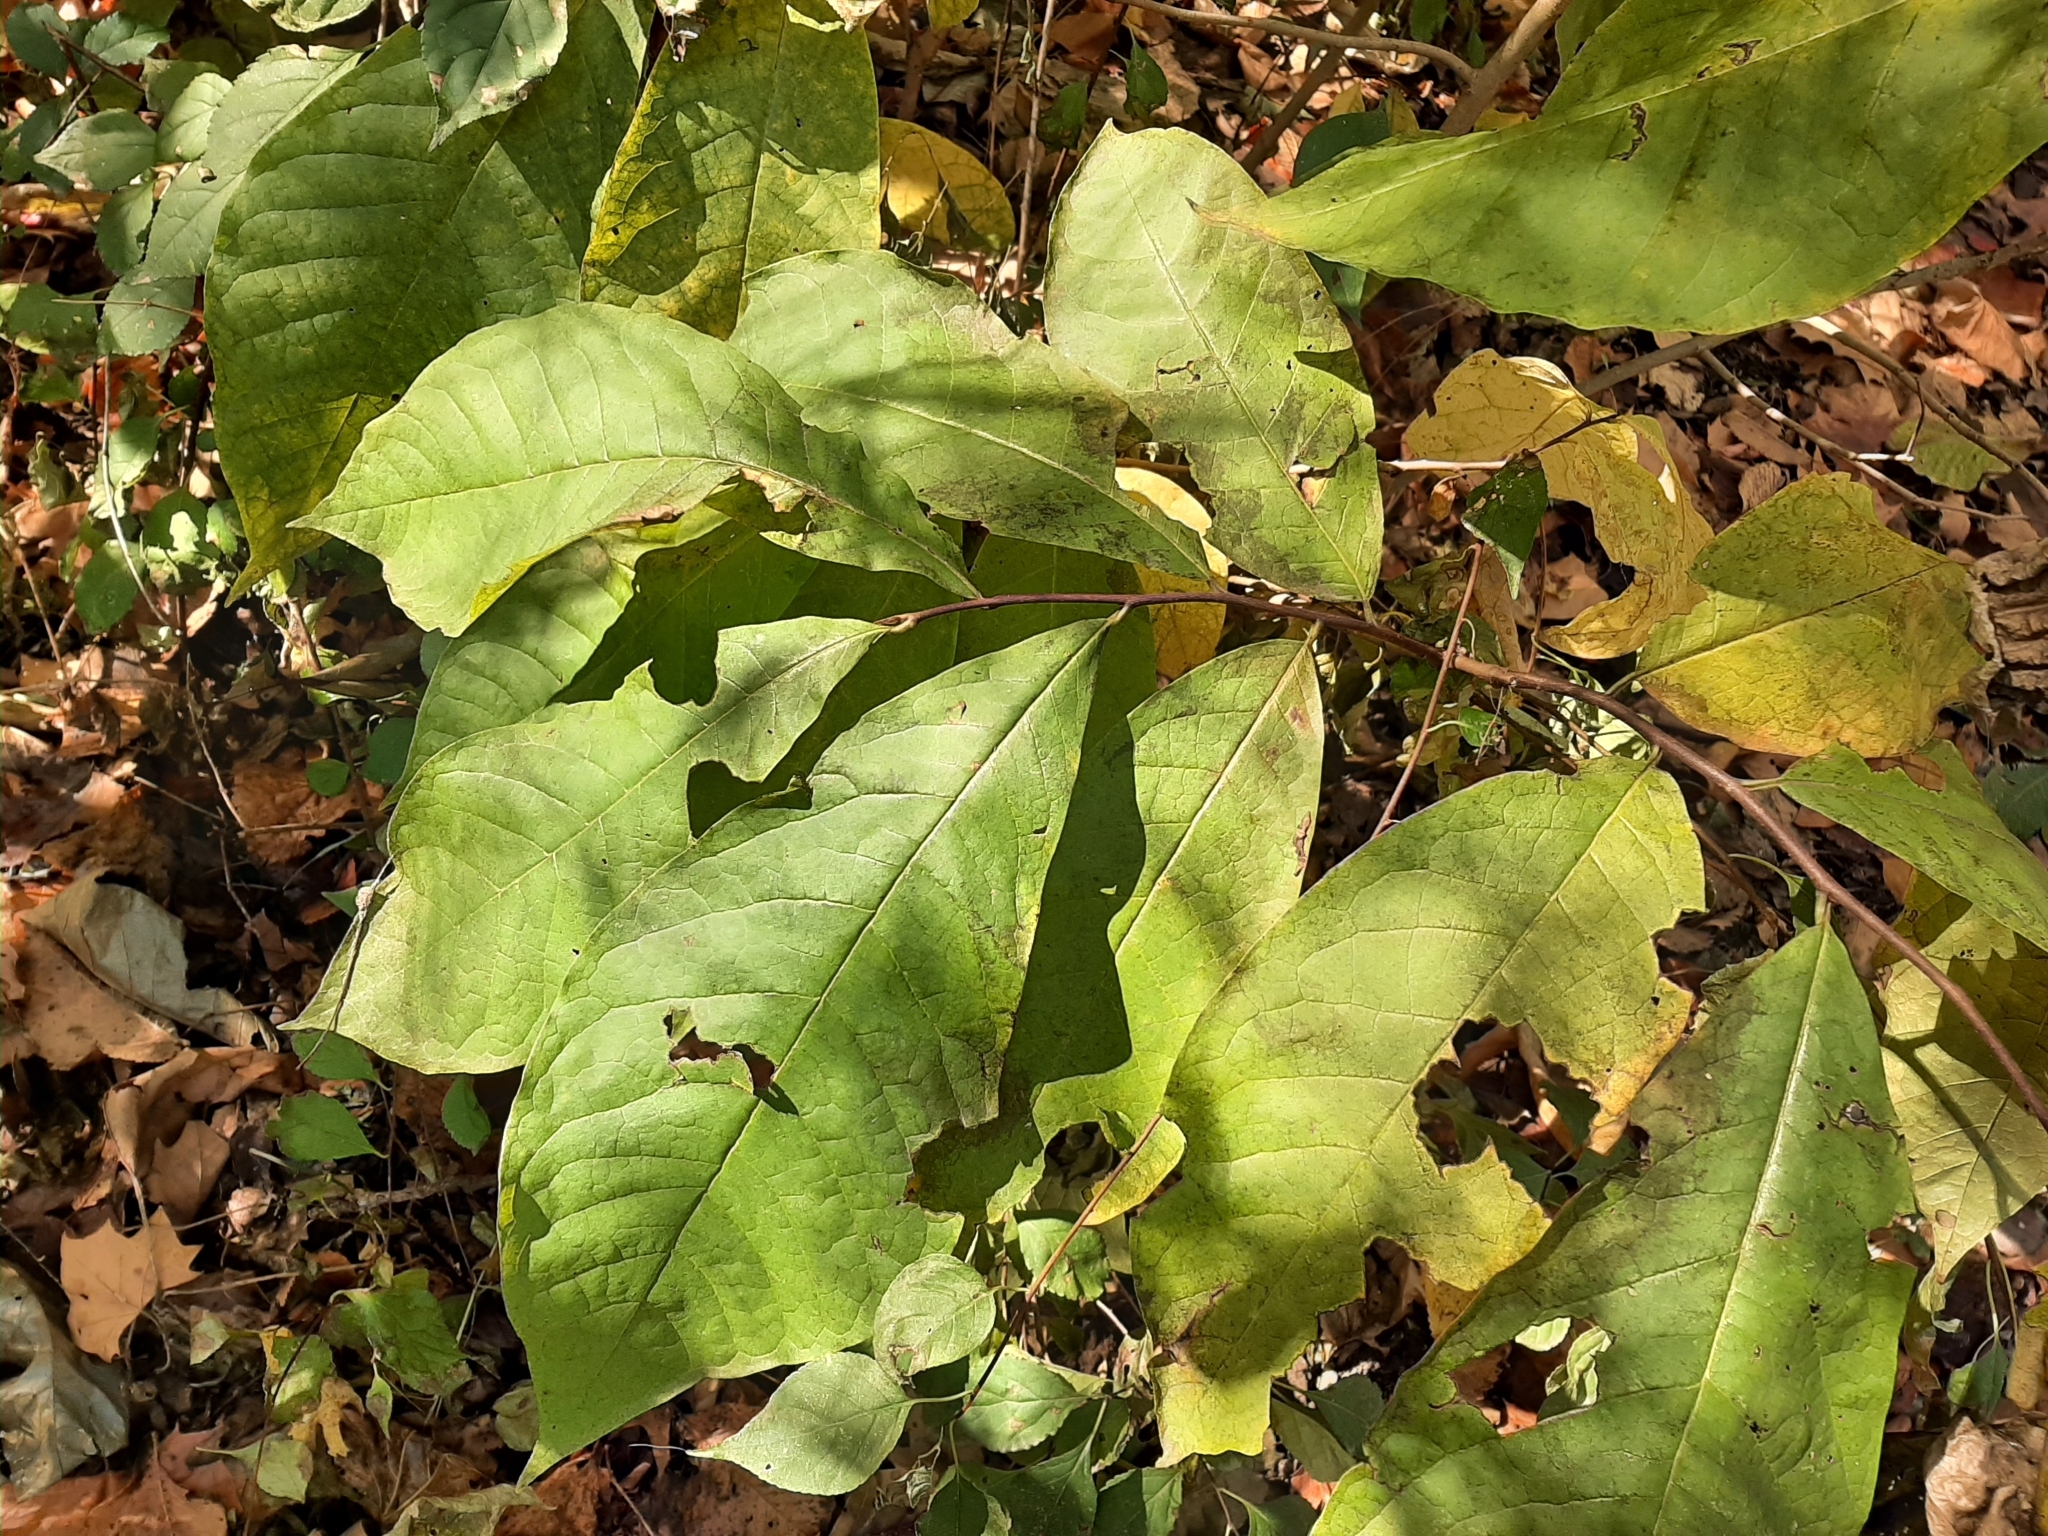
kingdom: Plantae
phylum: Tracheophyta
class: Magnoliopsida
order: Magnoliales
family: Annonaceae
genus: Asimina
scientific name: Asimina triloba
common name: Dog-banana
